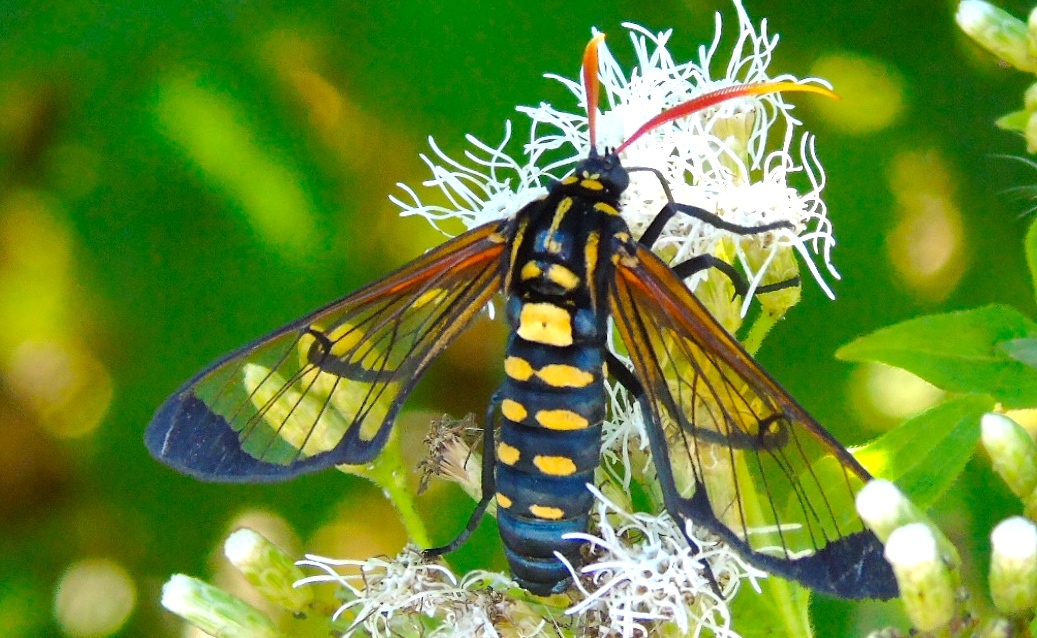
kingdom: Animalia
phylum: Arthropoda
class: Insecta
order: Lepidoptera
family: Erebidae
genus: Isanthrene
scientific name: Isanthrene perboscii
